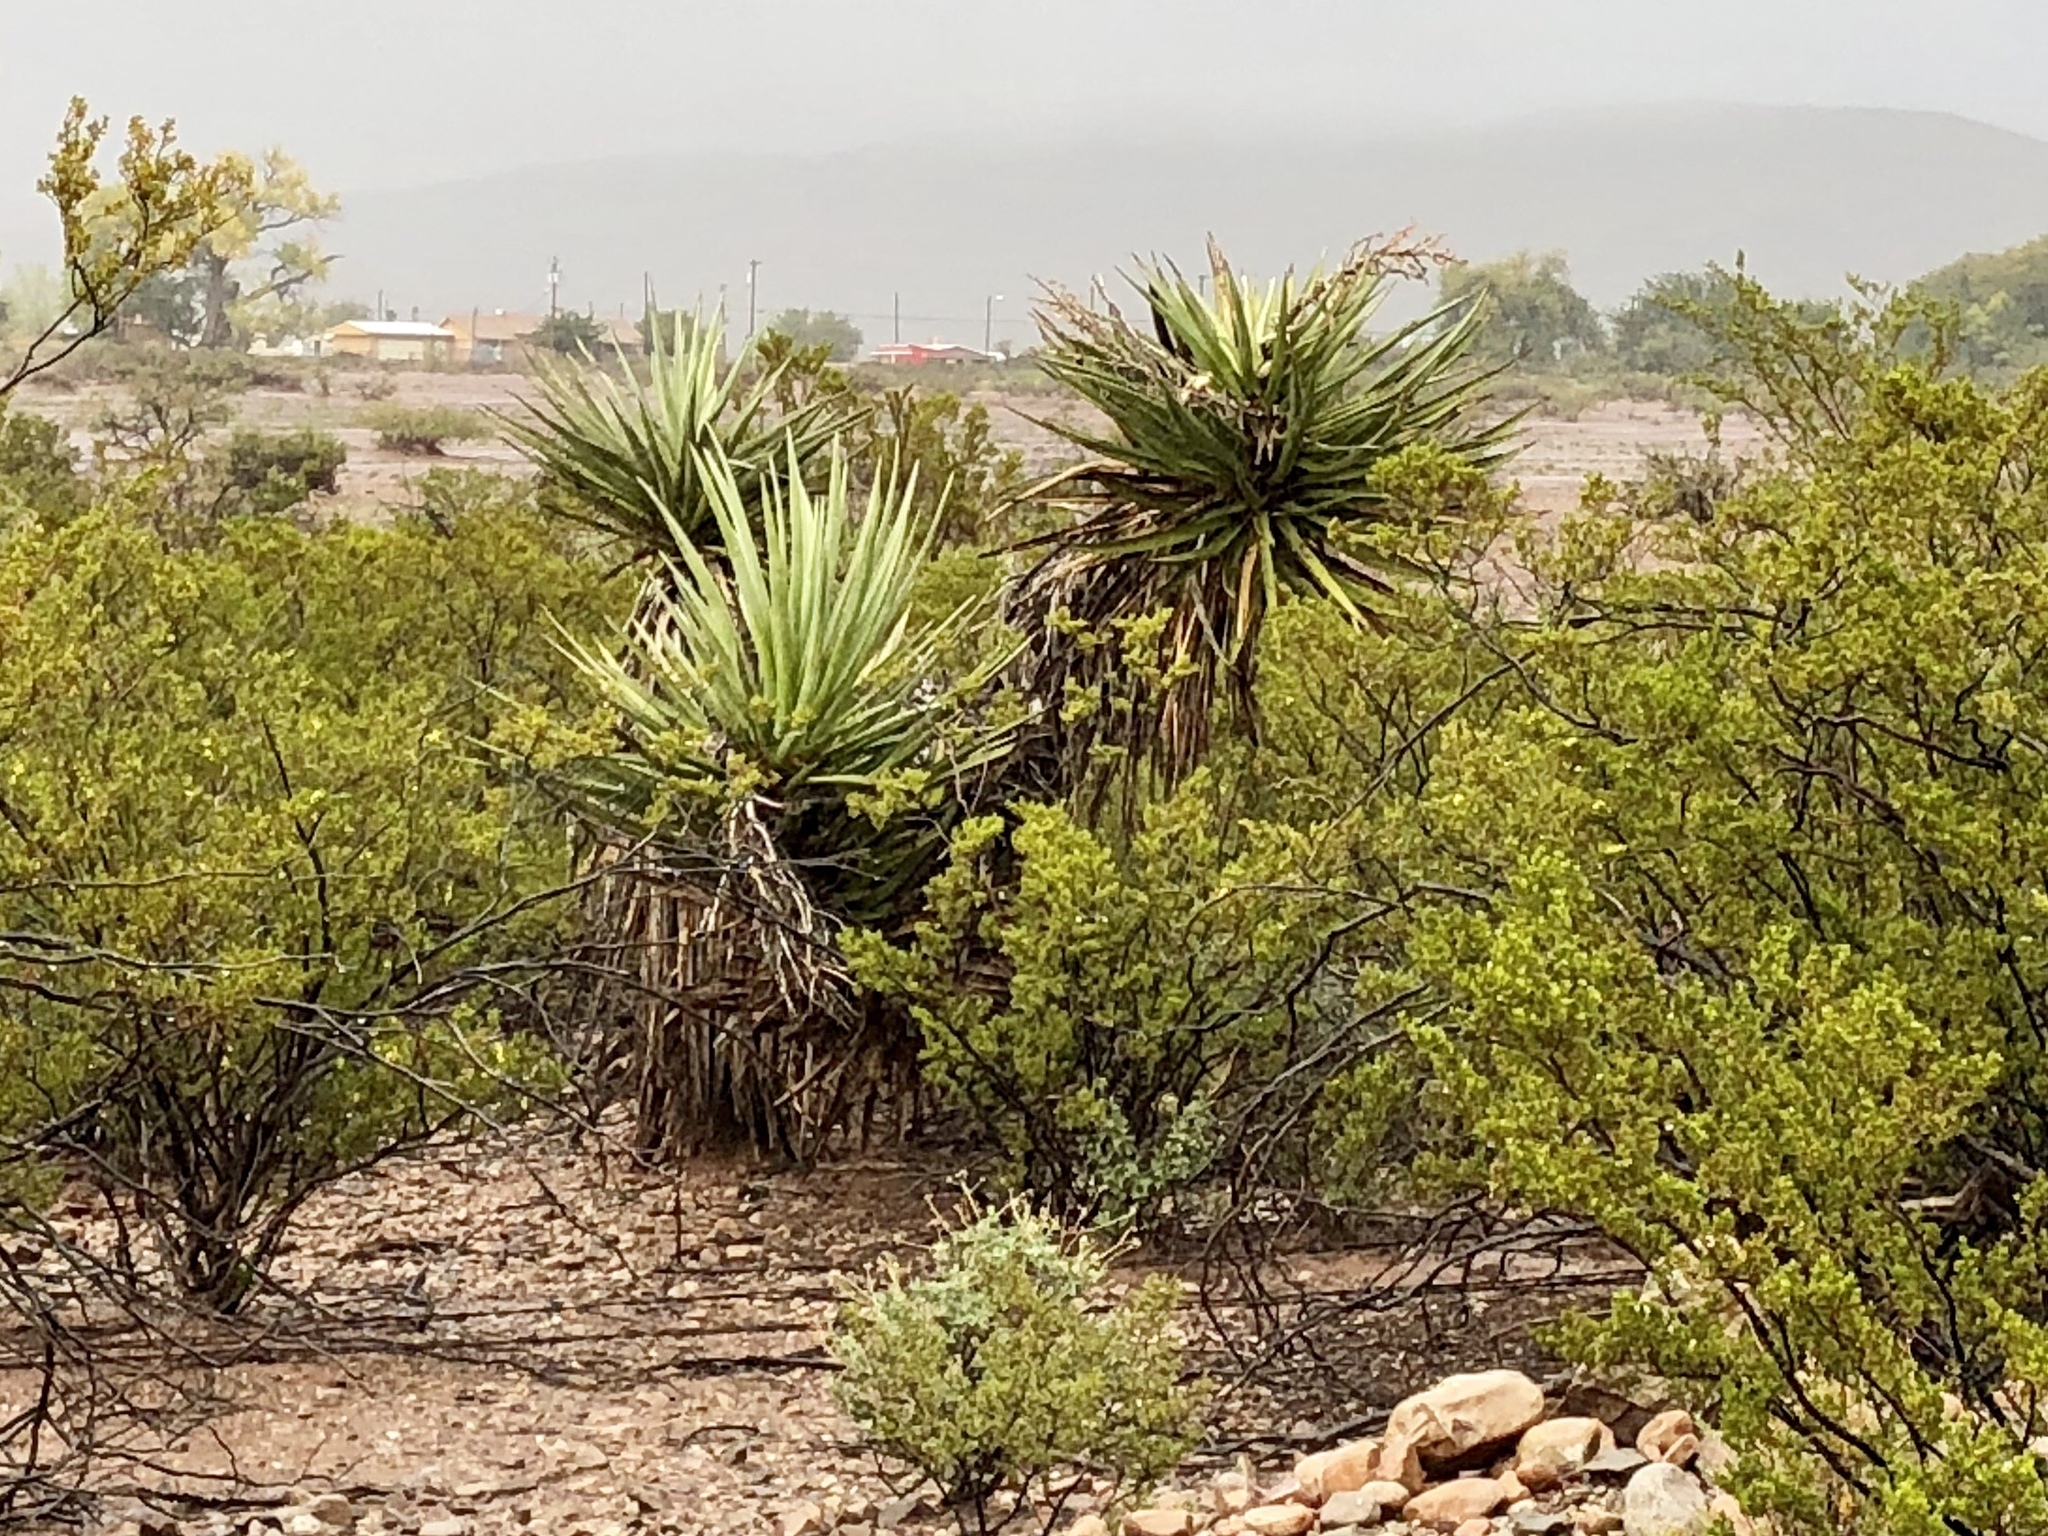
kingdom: Plantae
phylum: Tracheophyta
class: Liliopsida
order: Asparagales
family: Asparagaceae
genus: Yucca
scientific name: Yucca treculiana
